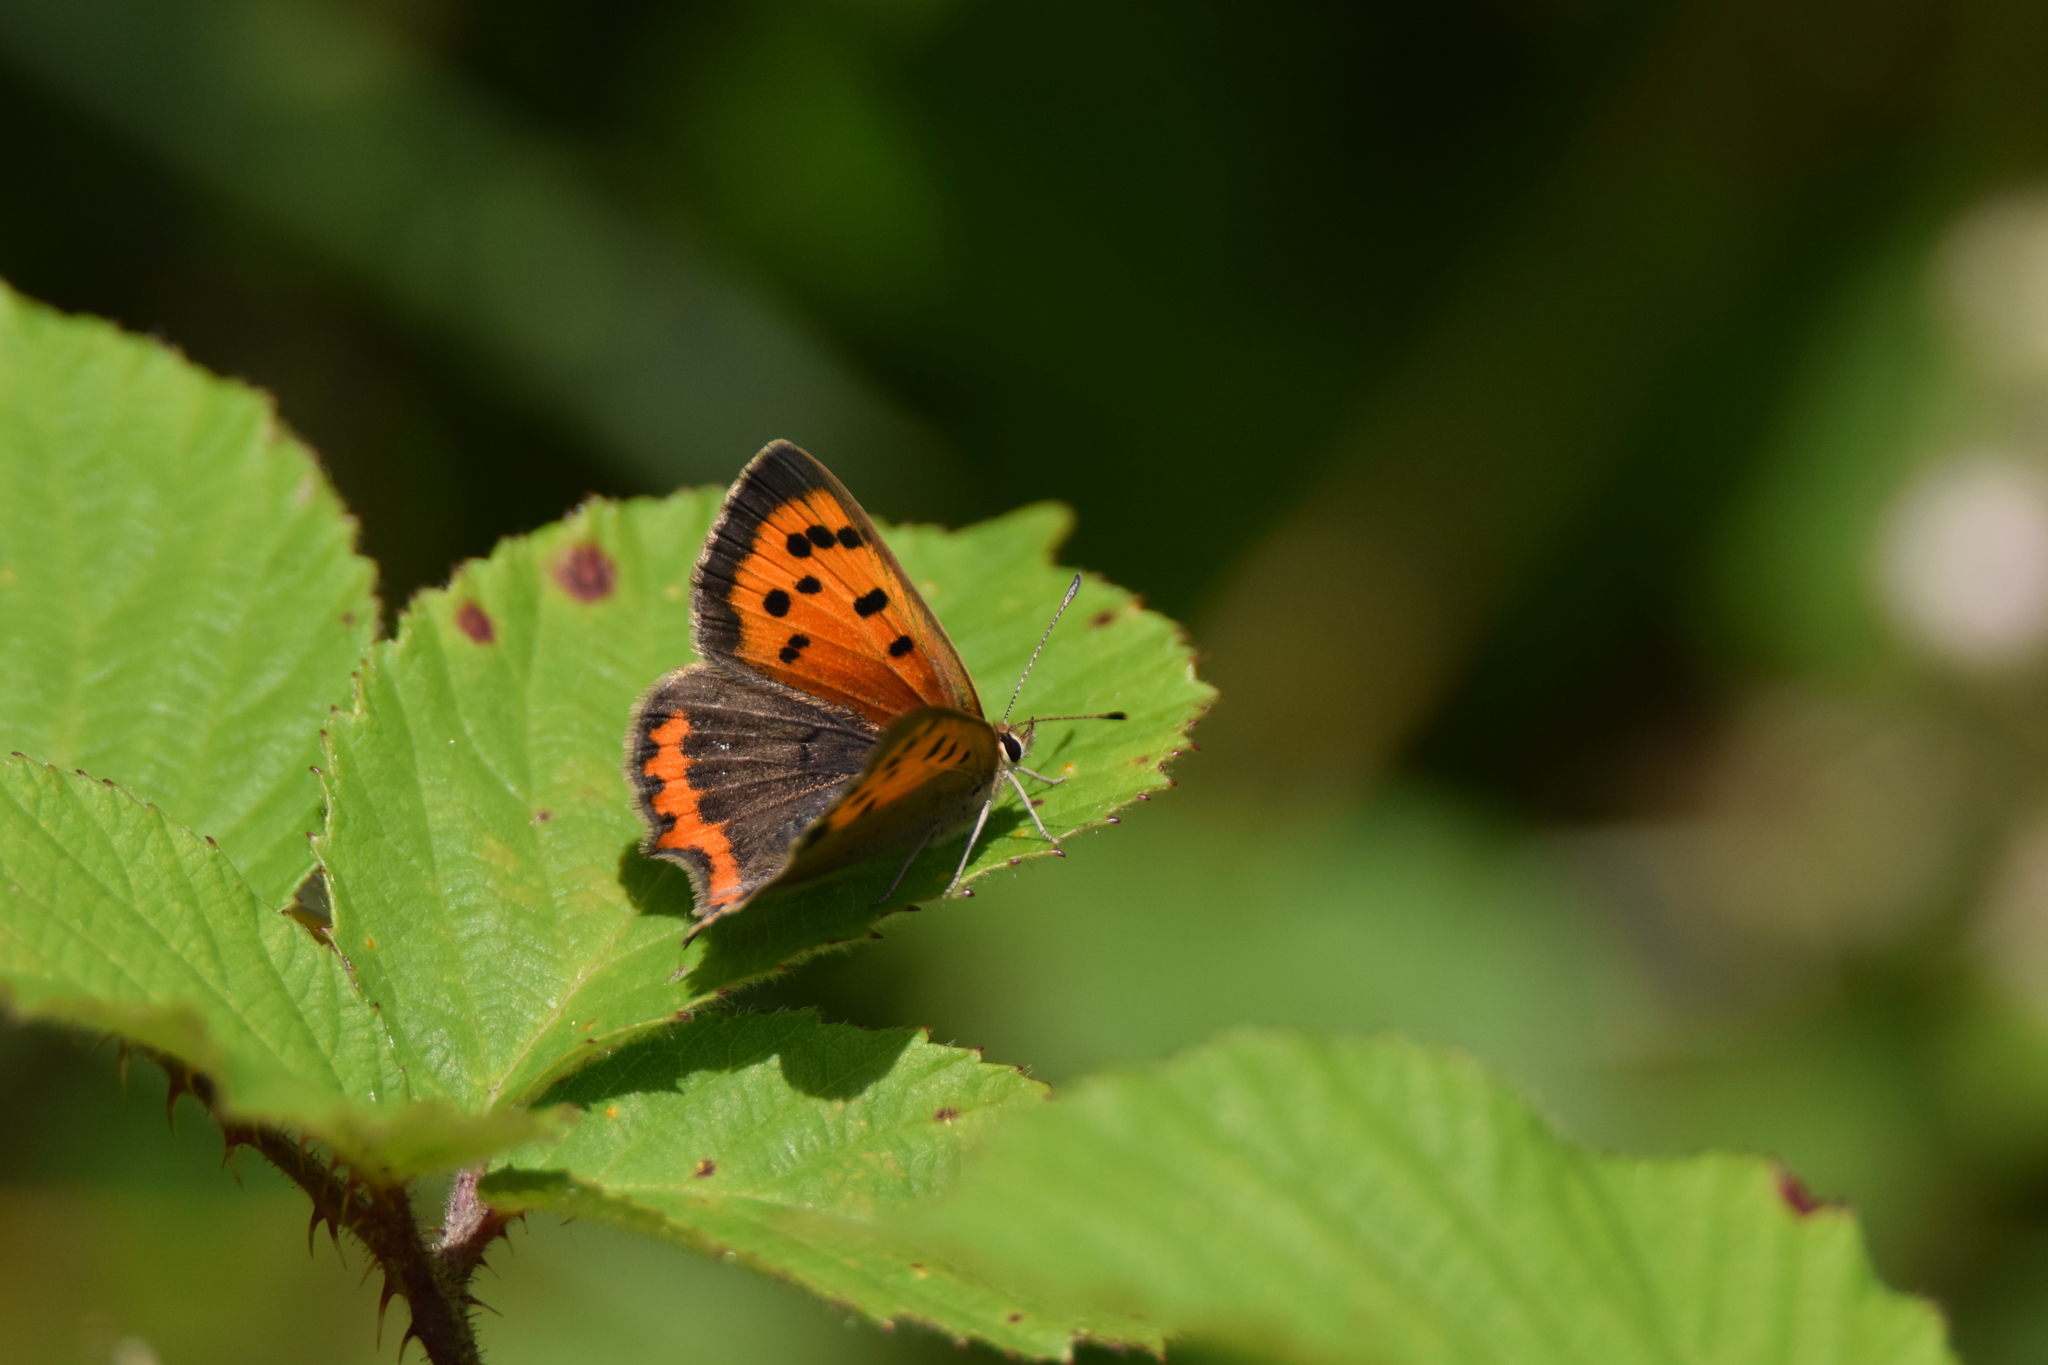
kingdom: Animalia
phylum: Arthropoda
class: Insecta
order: Lepidoptera
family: Lycaenidae
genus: Lycaena
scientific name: Lycaena phlaeas
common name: Small copper
